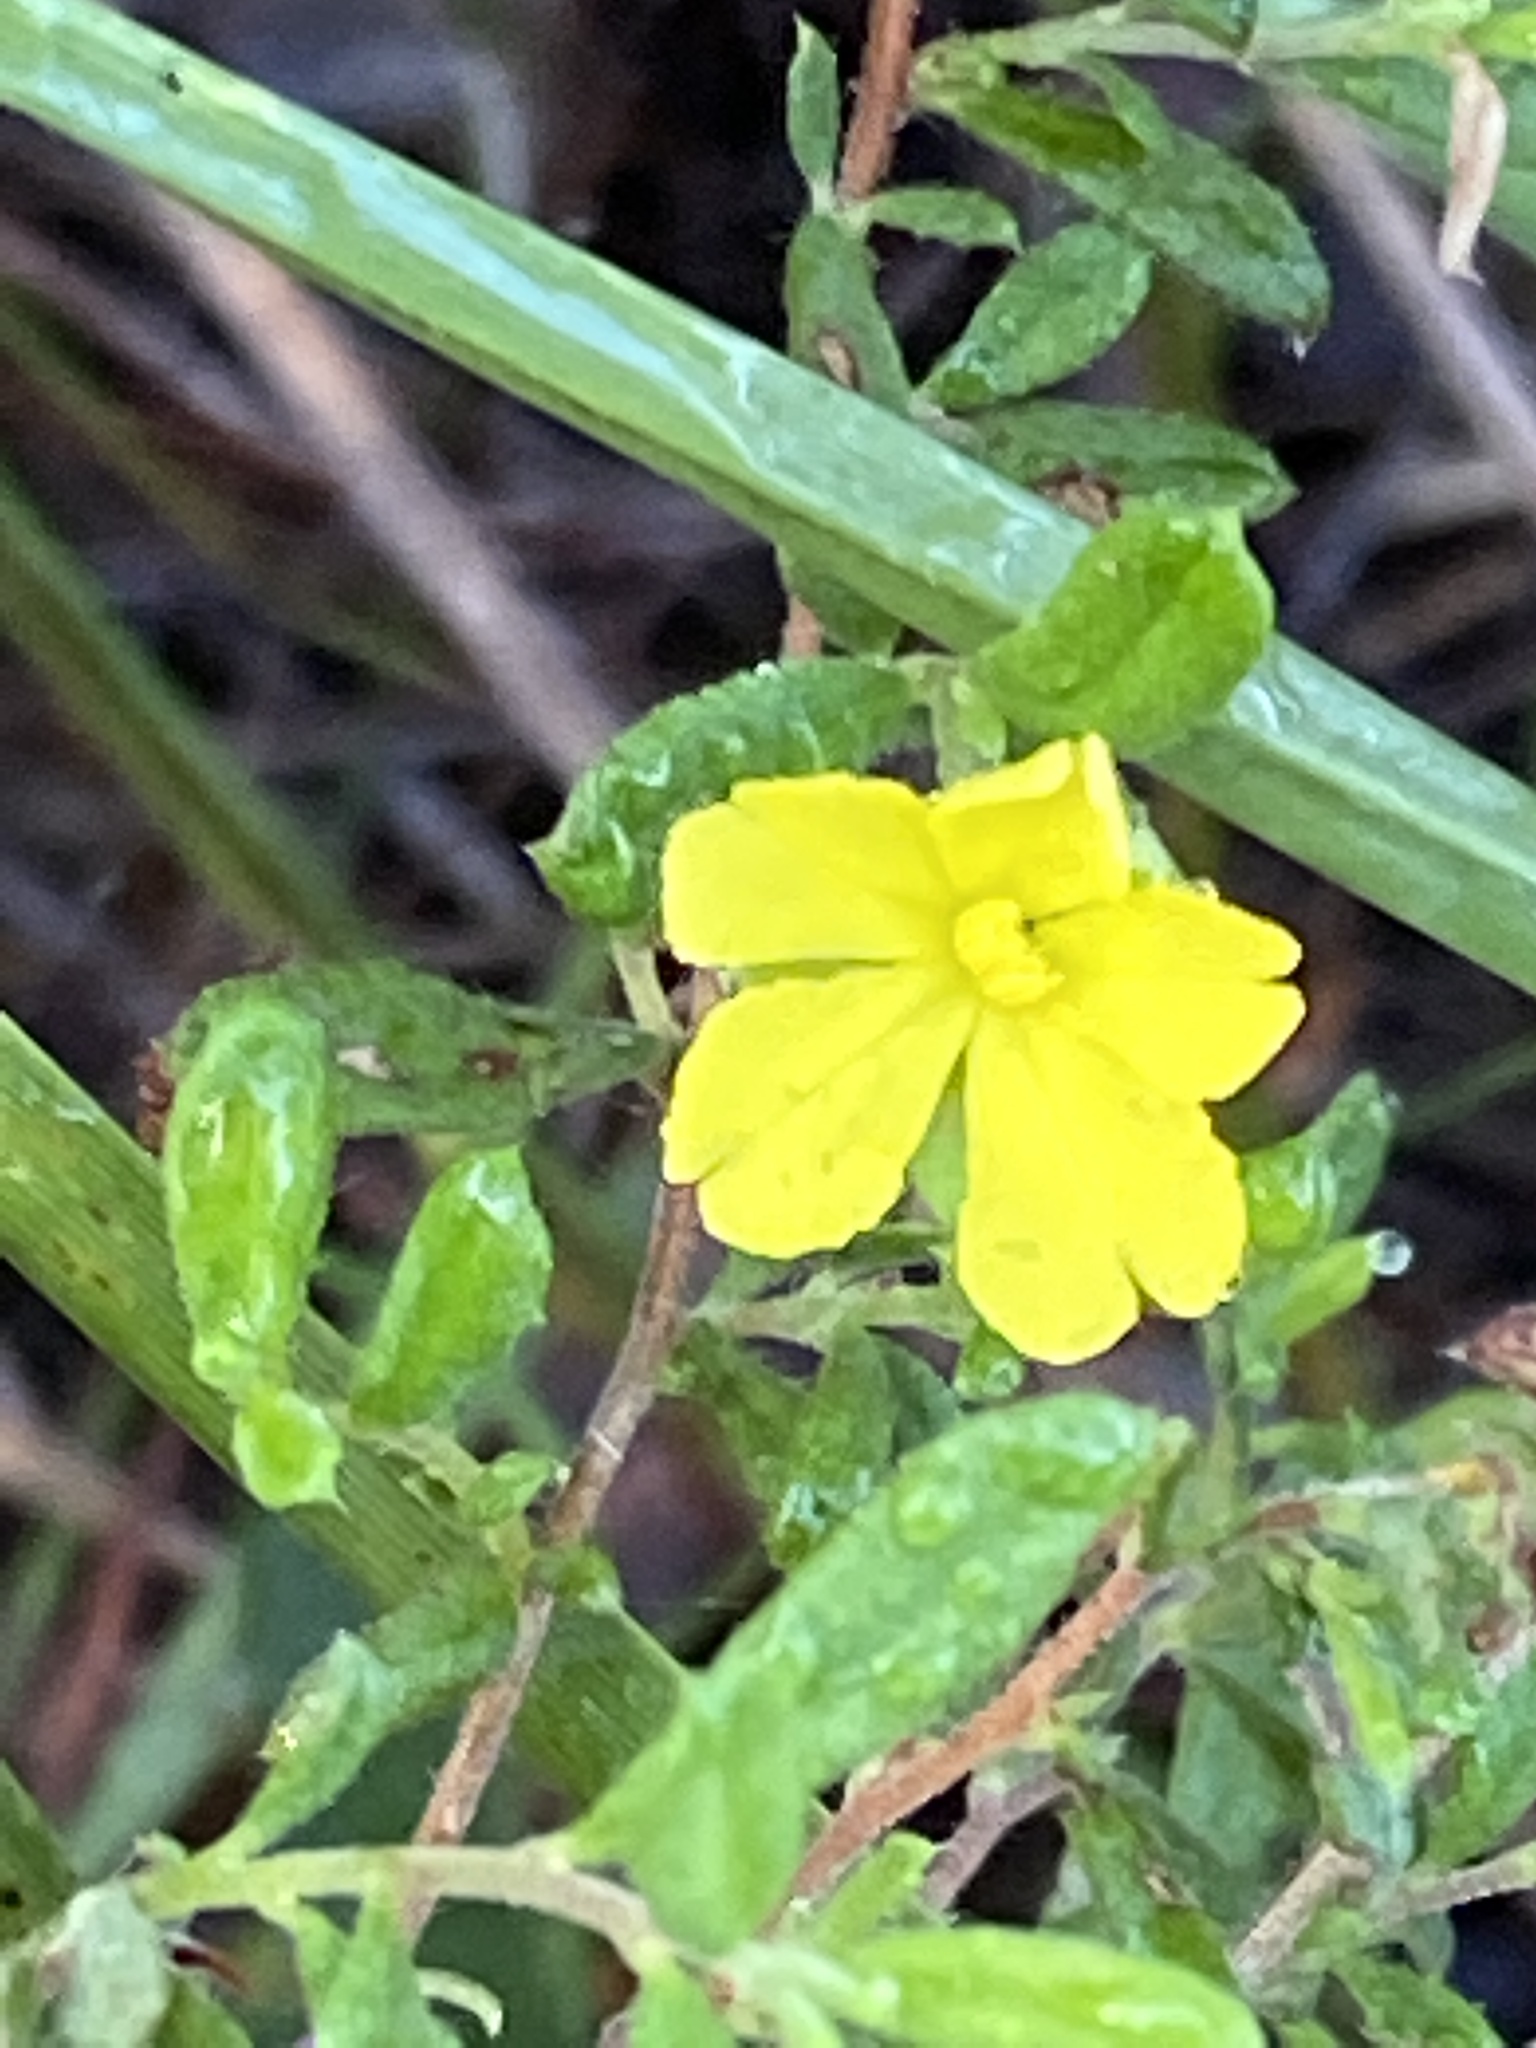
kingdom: Plantae
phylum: Tracheophyta
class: Magnoliopsida
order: Dilleniales
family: Dilleniaceae
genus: Hibbertia
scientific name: Hibbertia aspera
